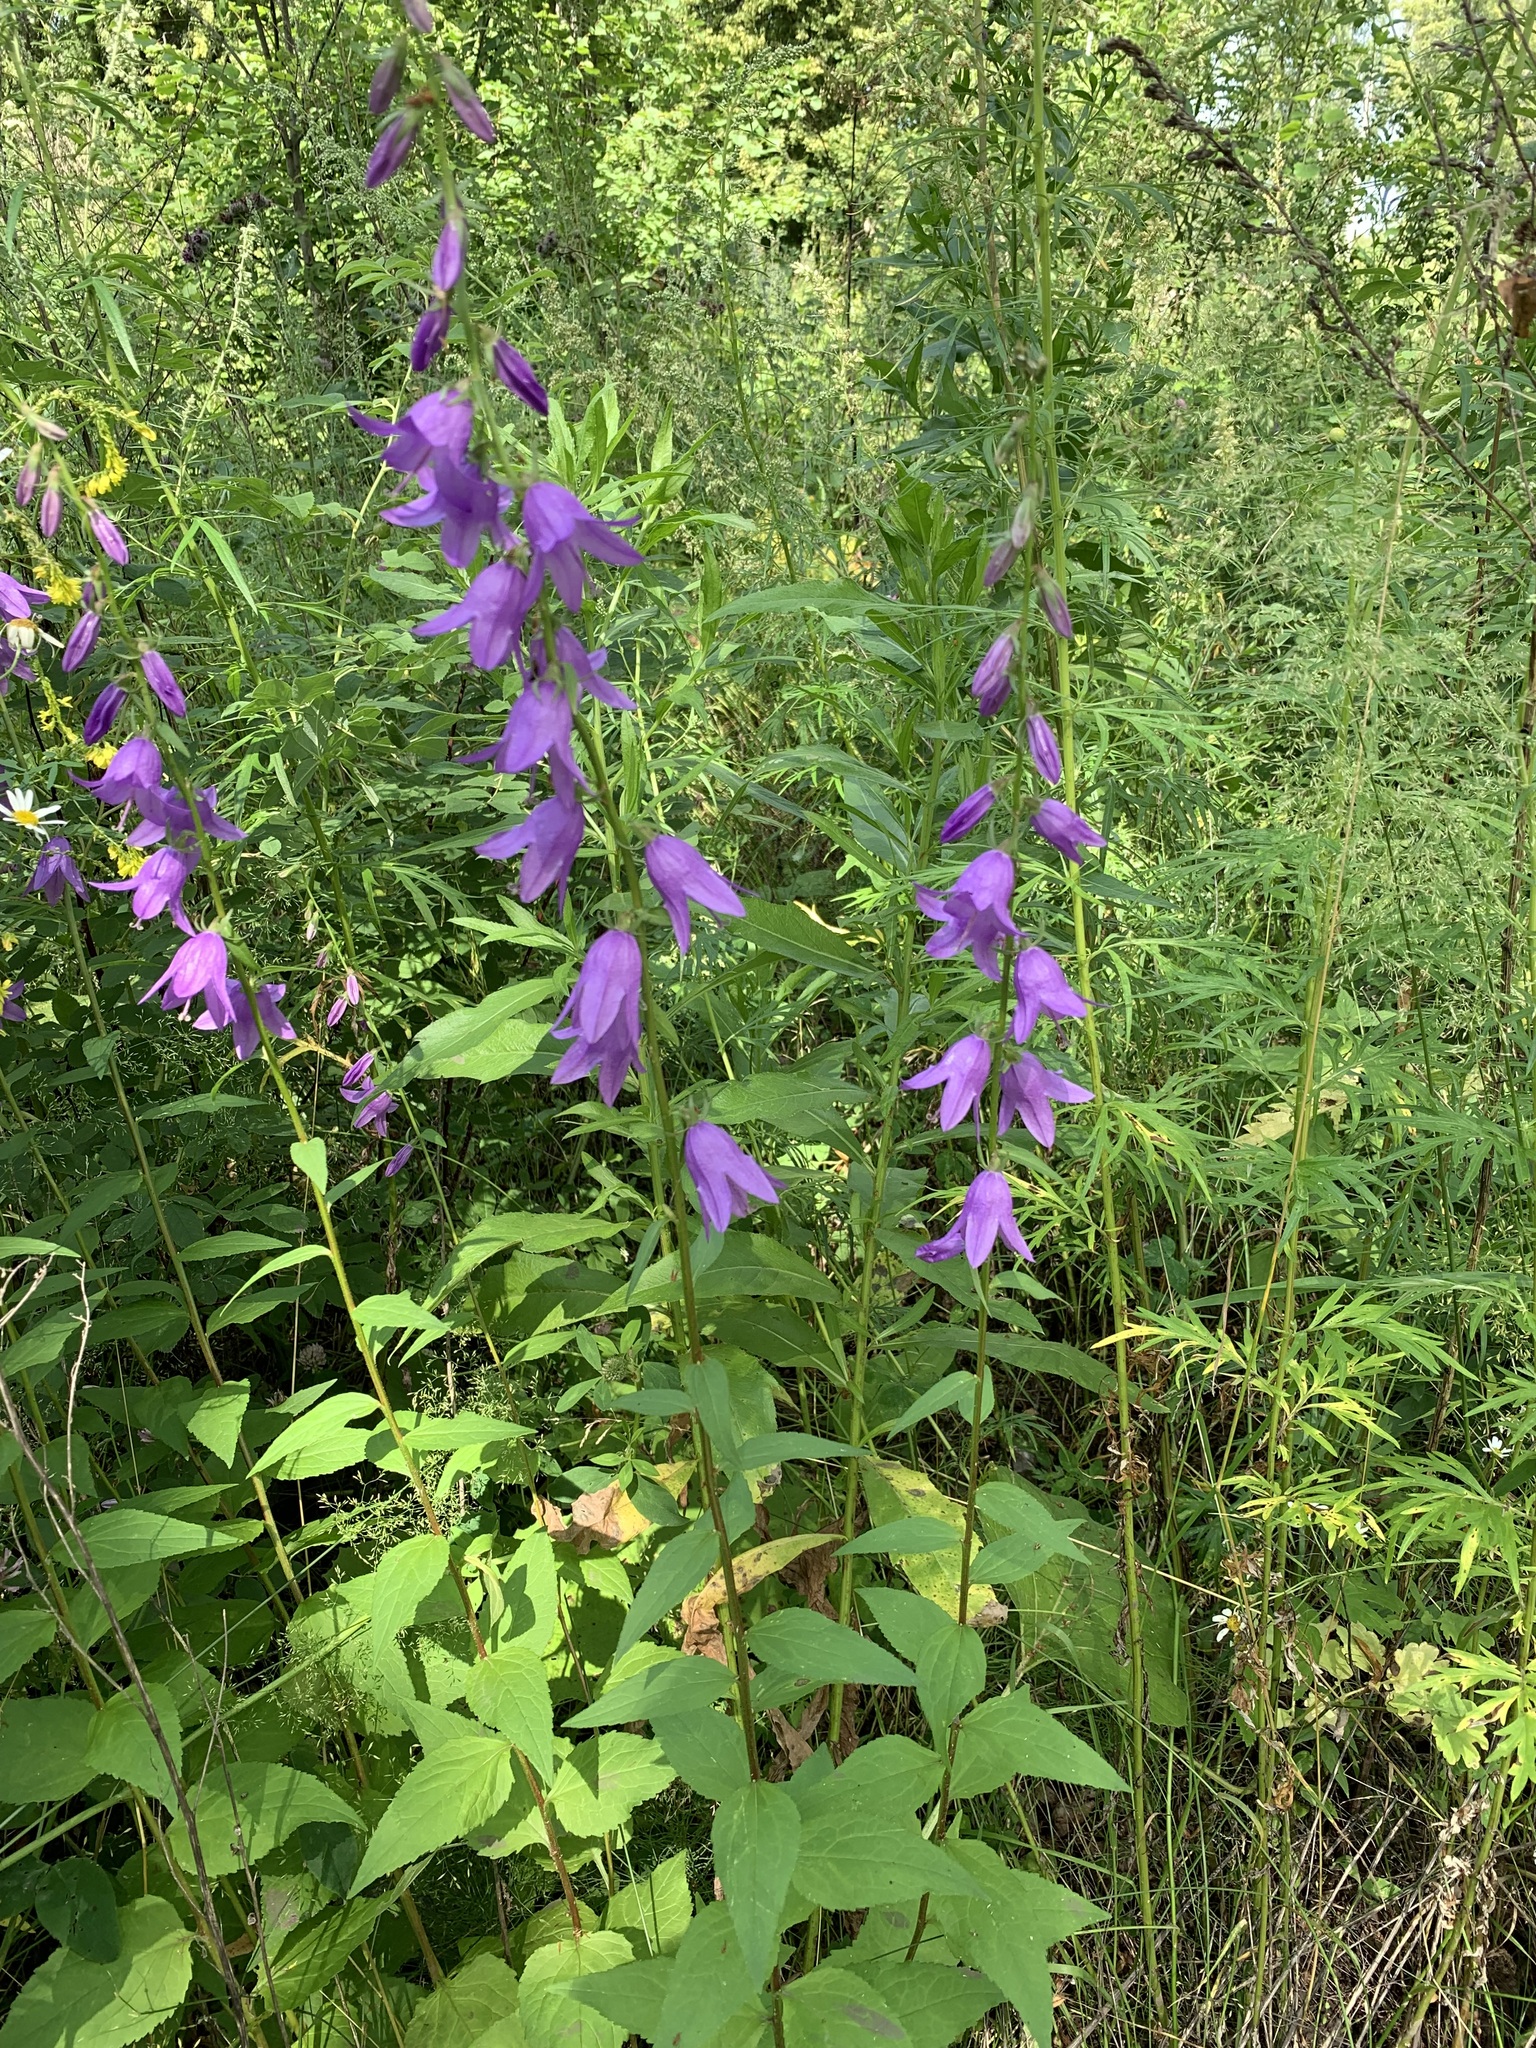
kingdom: Plantae
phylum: Tracheophyta
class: Magnoliopsida
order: Asterales
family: Campanulaceae
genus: Campanula
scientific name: Campanula rapunculoides
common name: Creeping bellflower
